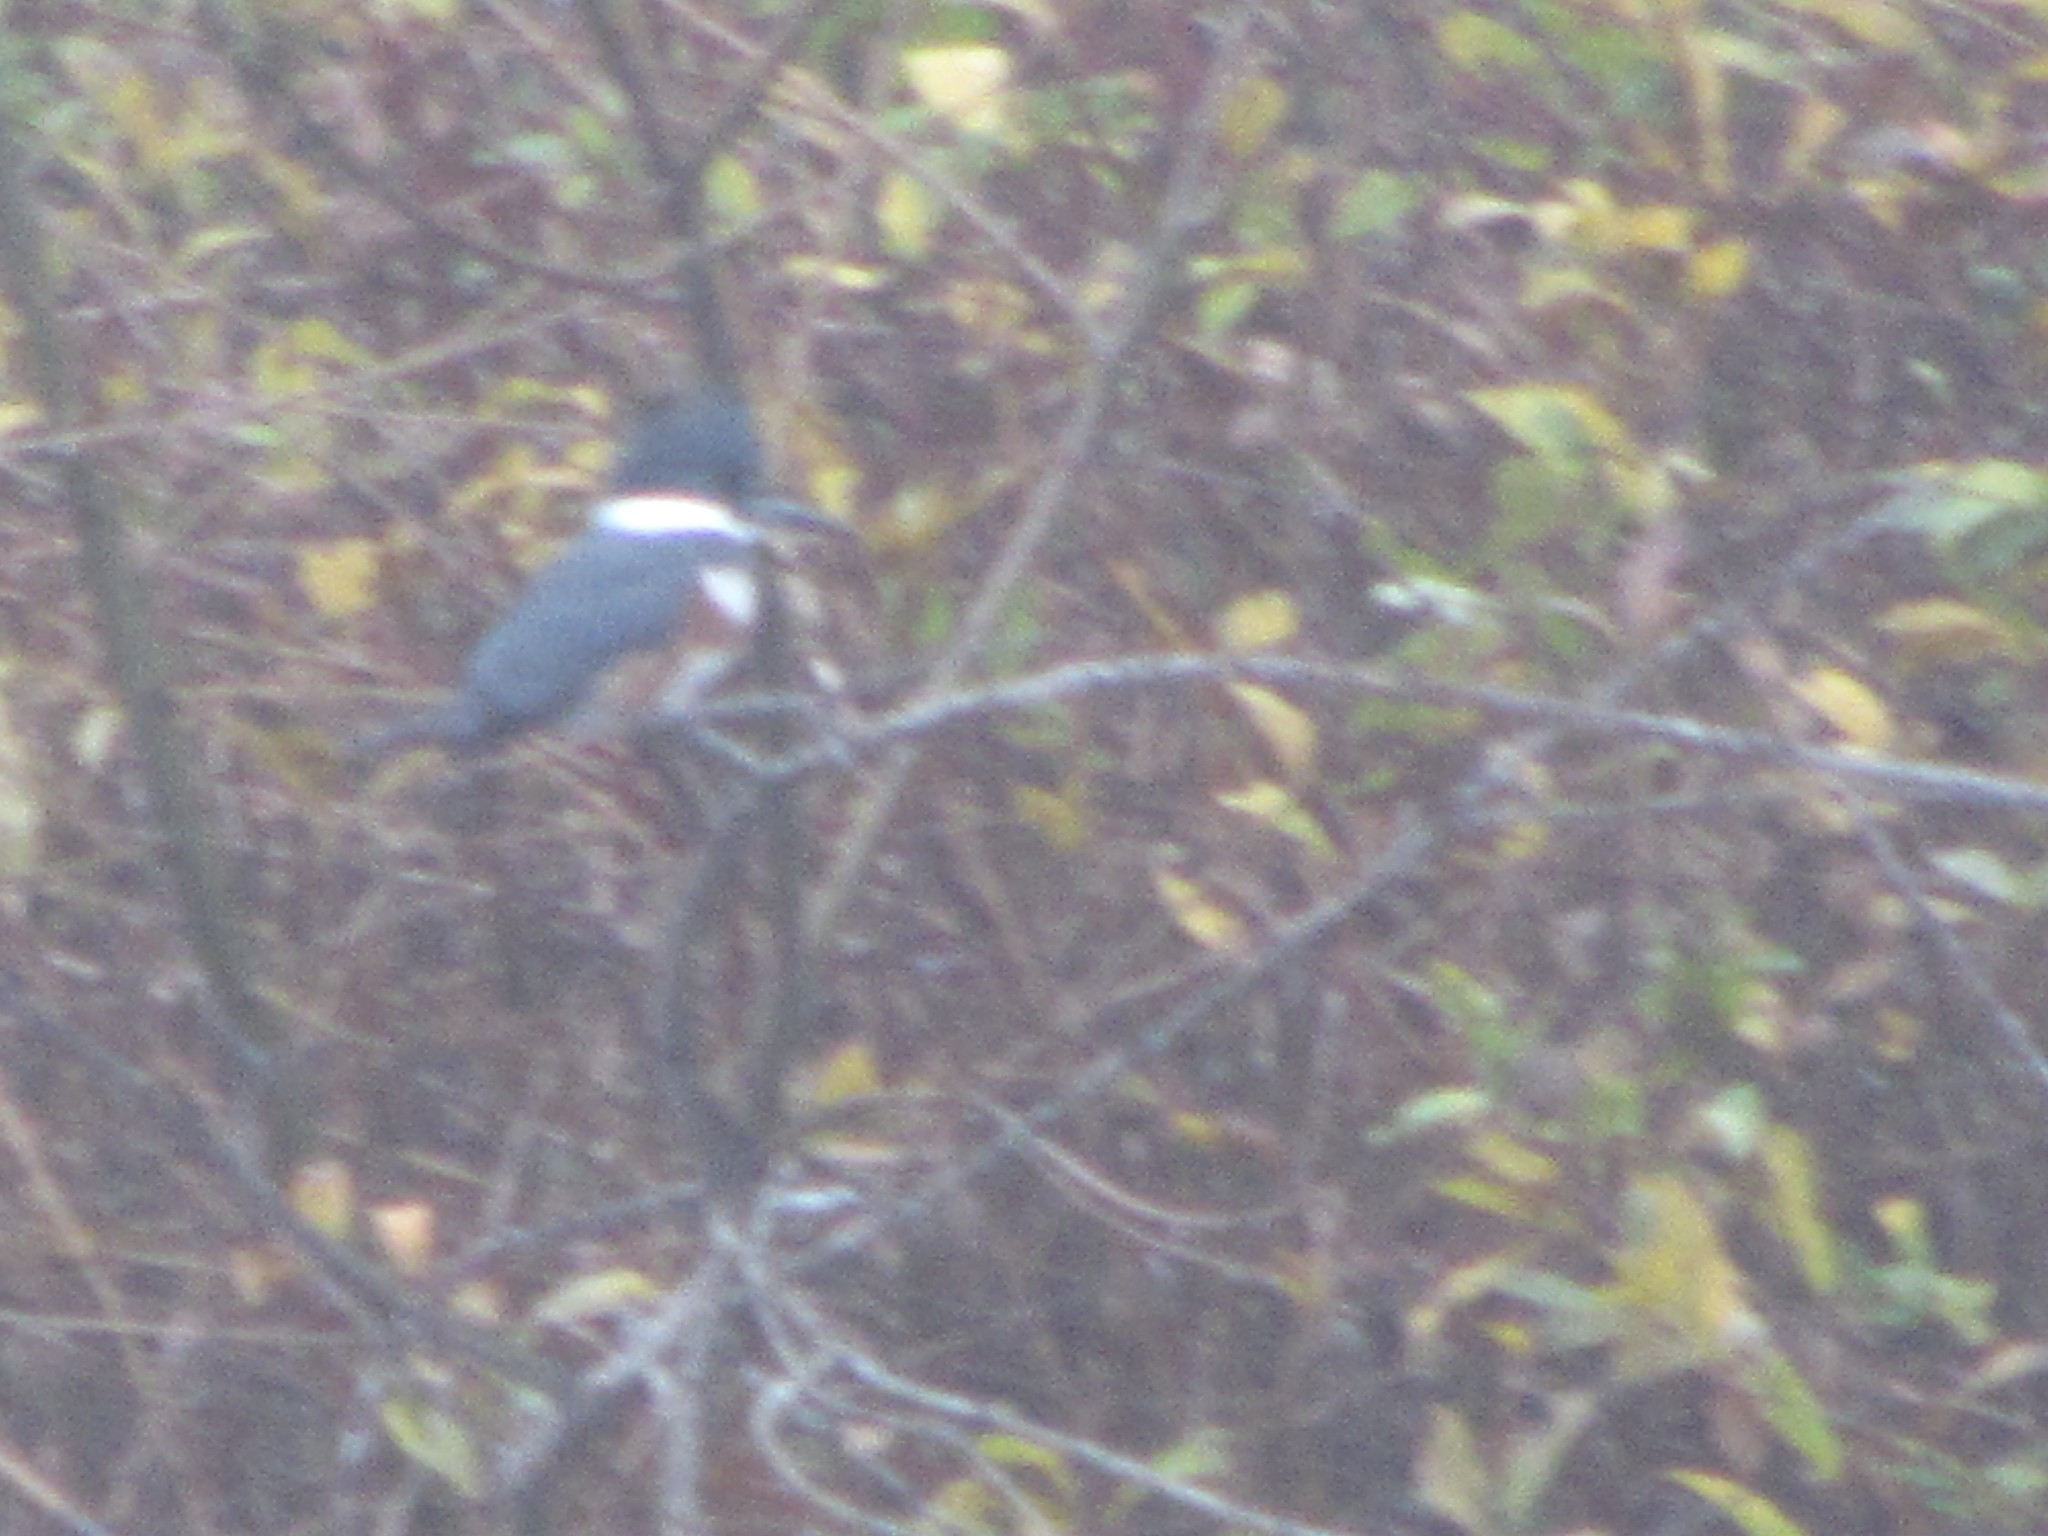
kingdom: Animalia
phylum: Chordata
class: Aves
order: Coraciiformes
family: Alcedinidae
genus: Megaceryle
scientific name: Megaceryle alcyon
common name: Belted kingfisher
